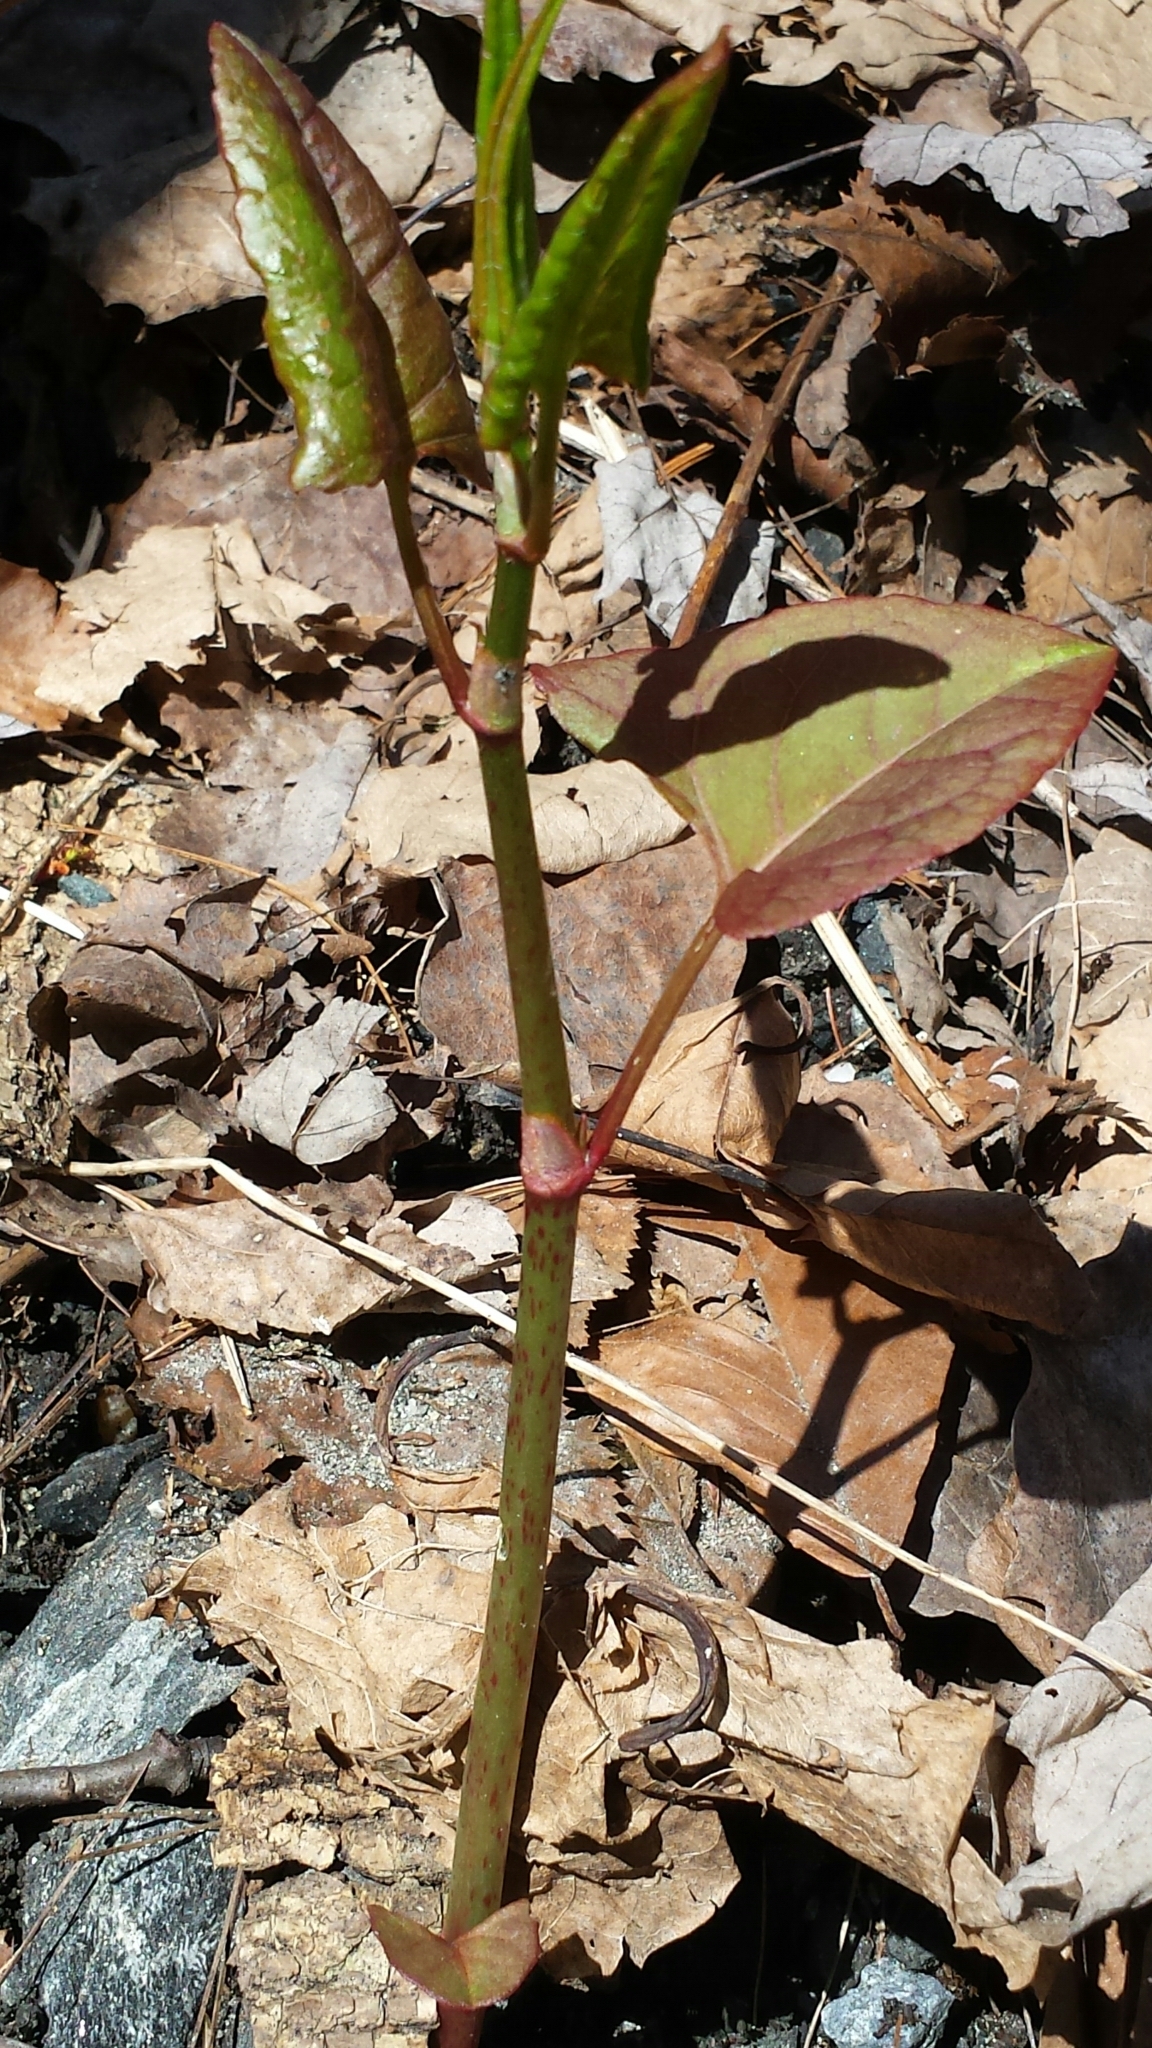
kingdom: Plantae
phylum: Tracheophyta
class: Magnoliopsida
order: Caryophyllales
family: Polygonaceae
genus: Reynoutria
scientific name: Reynoutria japonica
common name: Japanese knotweed
